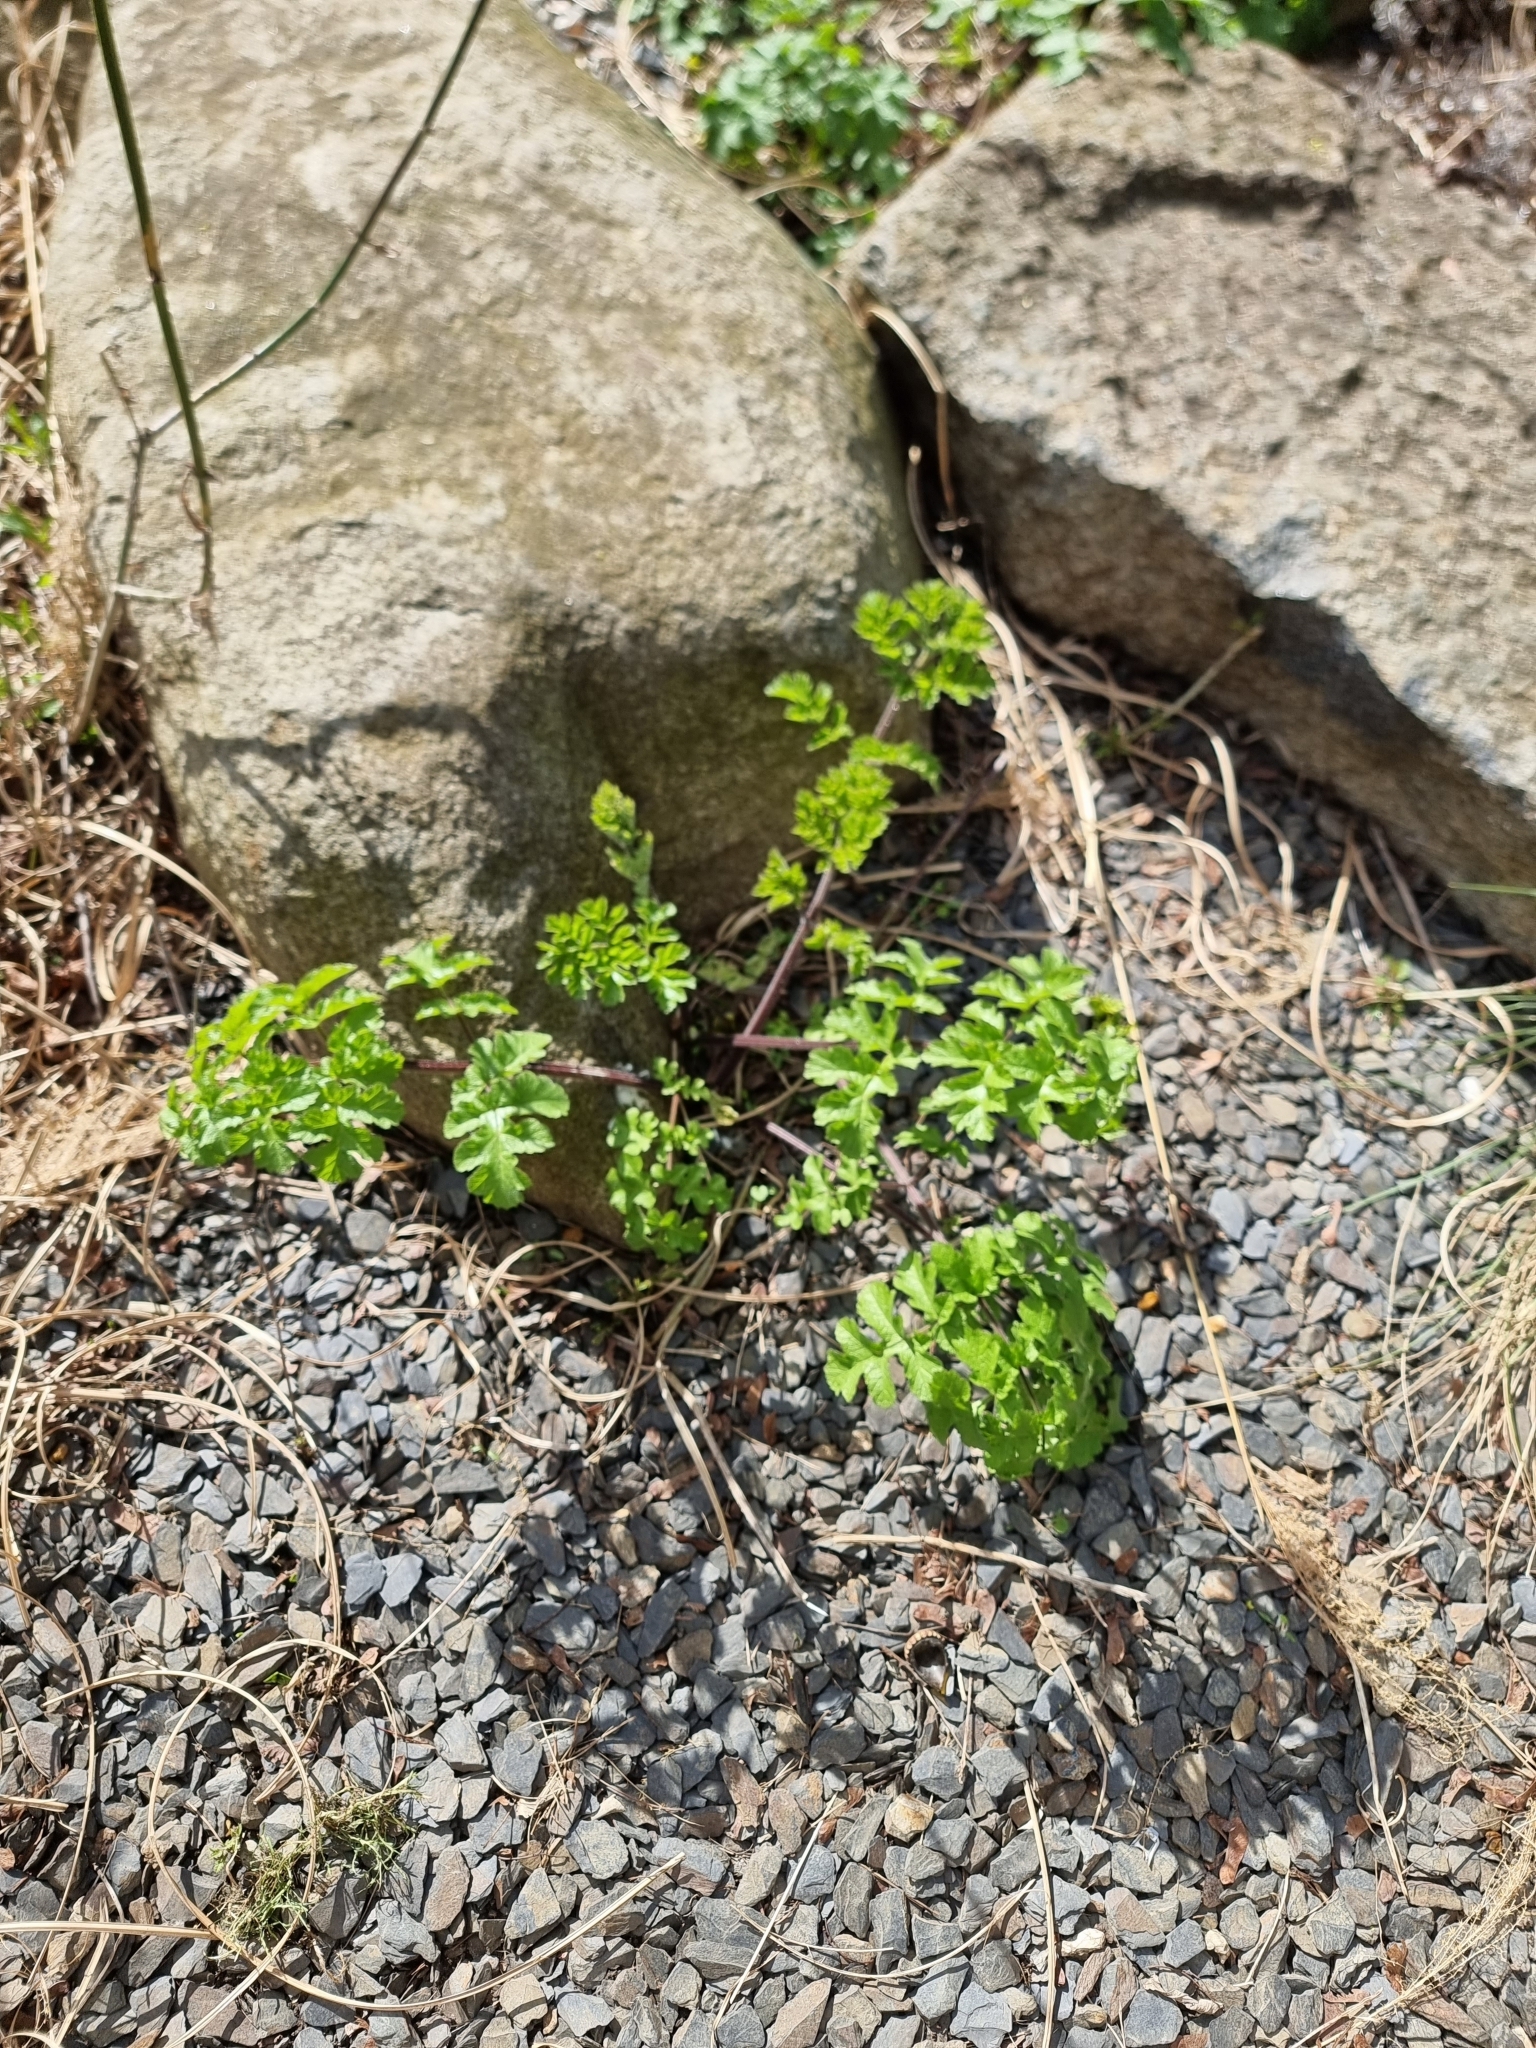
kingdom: Plantae
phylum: Tracheophyta
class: Magnoliopsida
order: Apiales
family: Apiaceae
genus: Heracleum
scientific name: Heracleum sphondylium
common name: Hogweed
